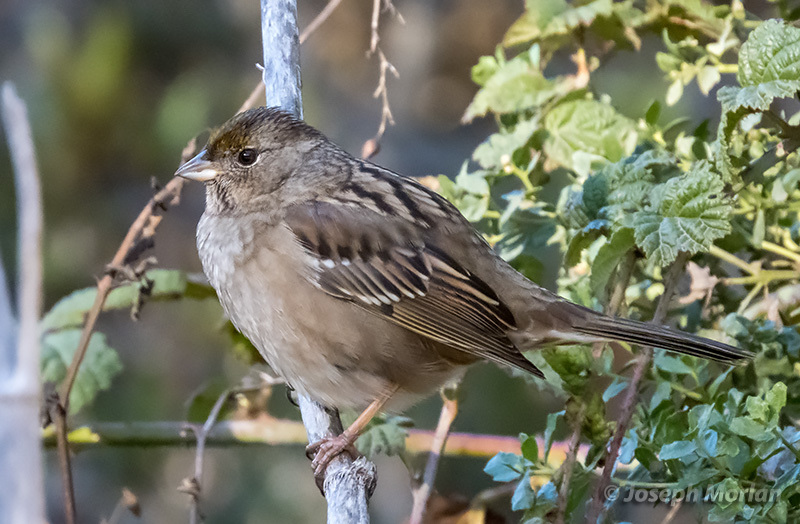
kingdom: Animalia
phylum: Chordata
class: Aves
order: Passeriformes
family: Passerellidae
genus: Zonotrichia
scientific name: Zonotrichia atricapilla
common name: Golden-crowned sparrow
